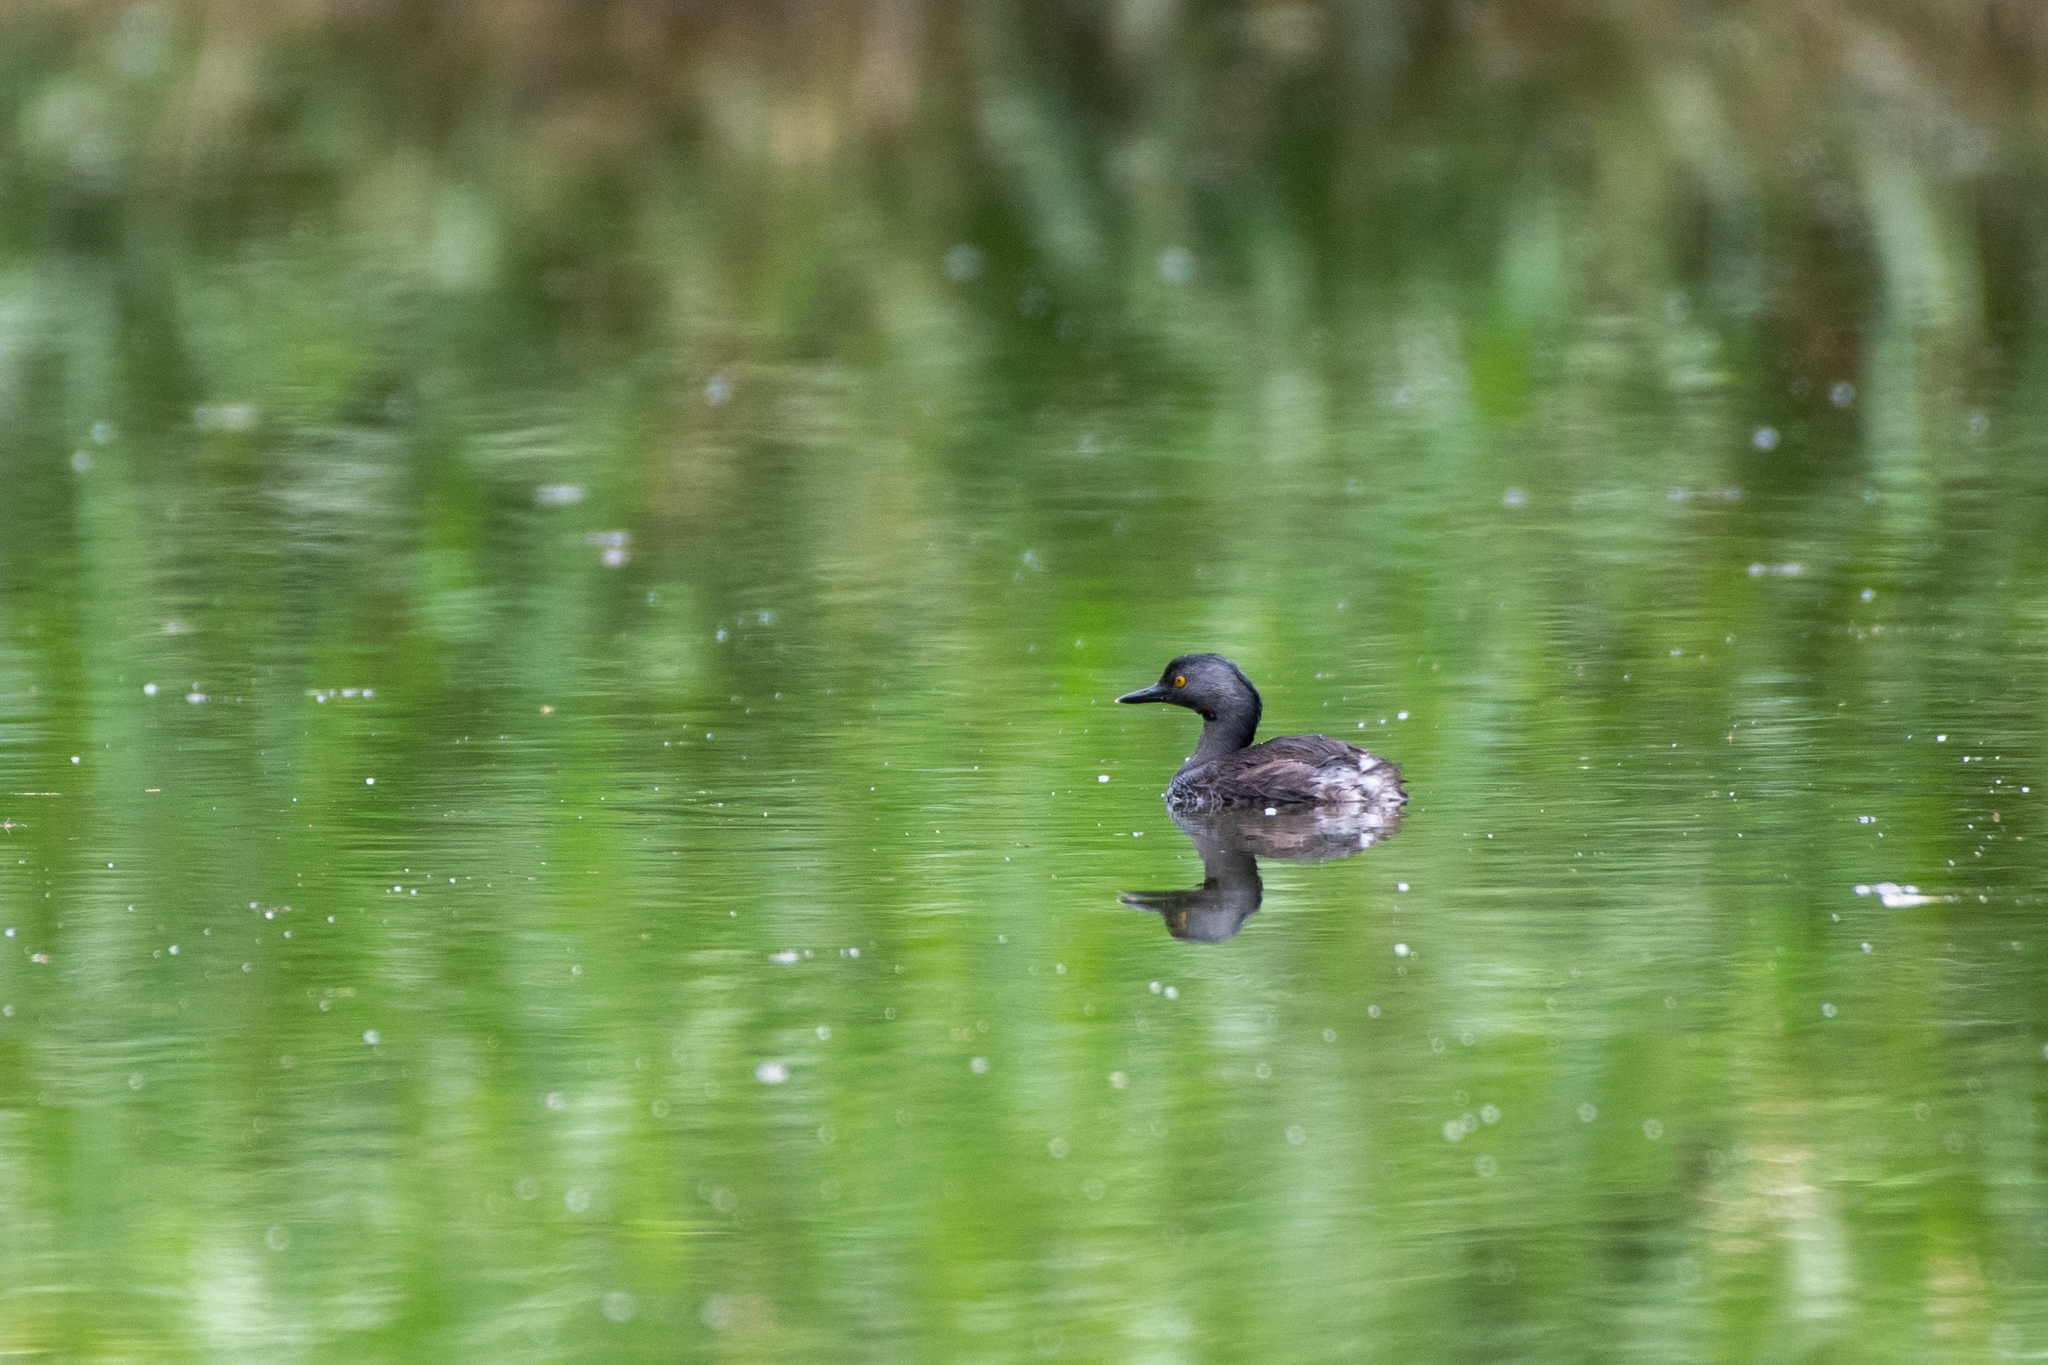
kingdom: Animalia
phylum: Chordata
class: Aves
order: Podicipediformes
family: Podicipedidae
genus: Tachybaptus
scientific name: Tachybaptus dominicus
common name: Least grebe
